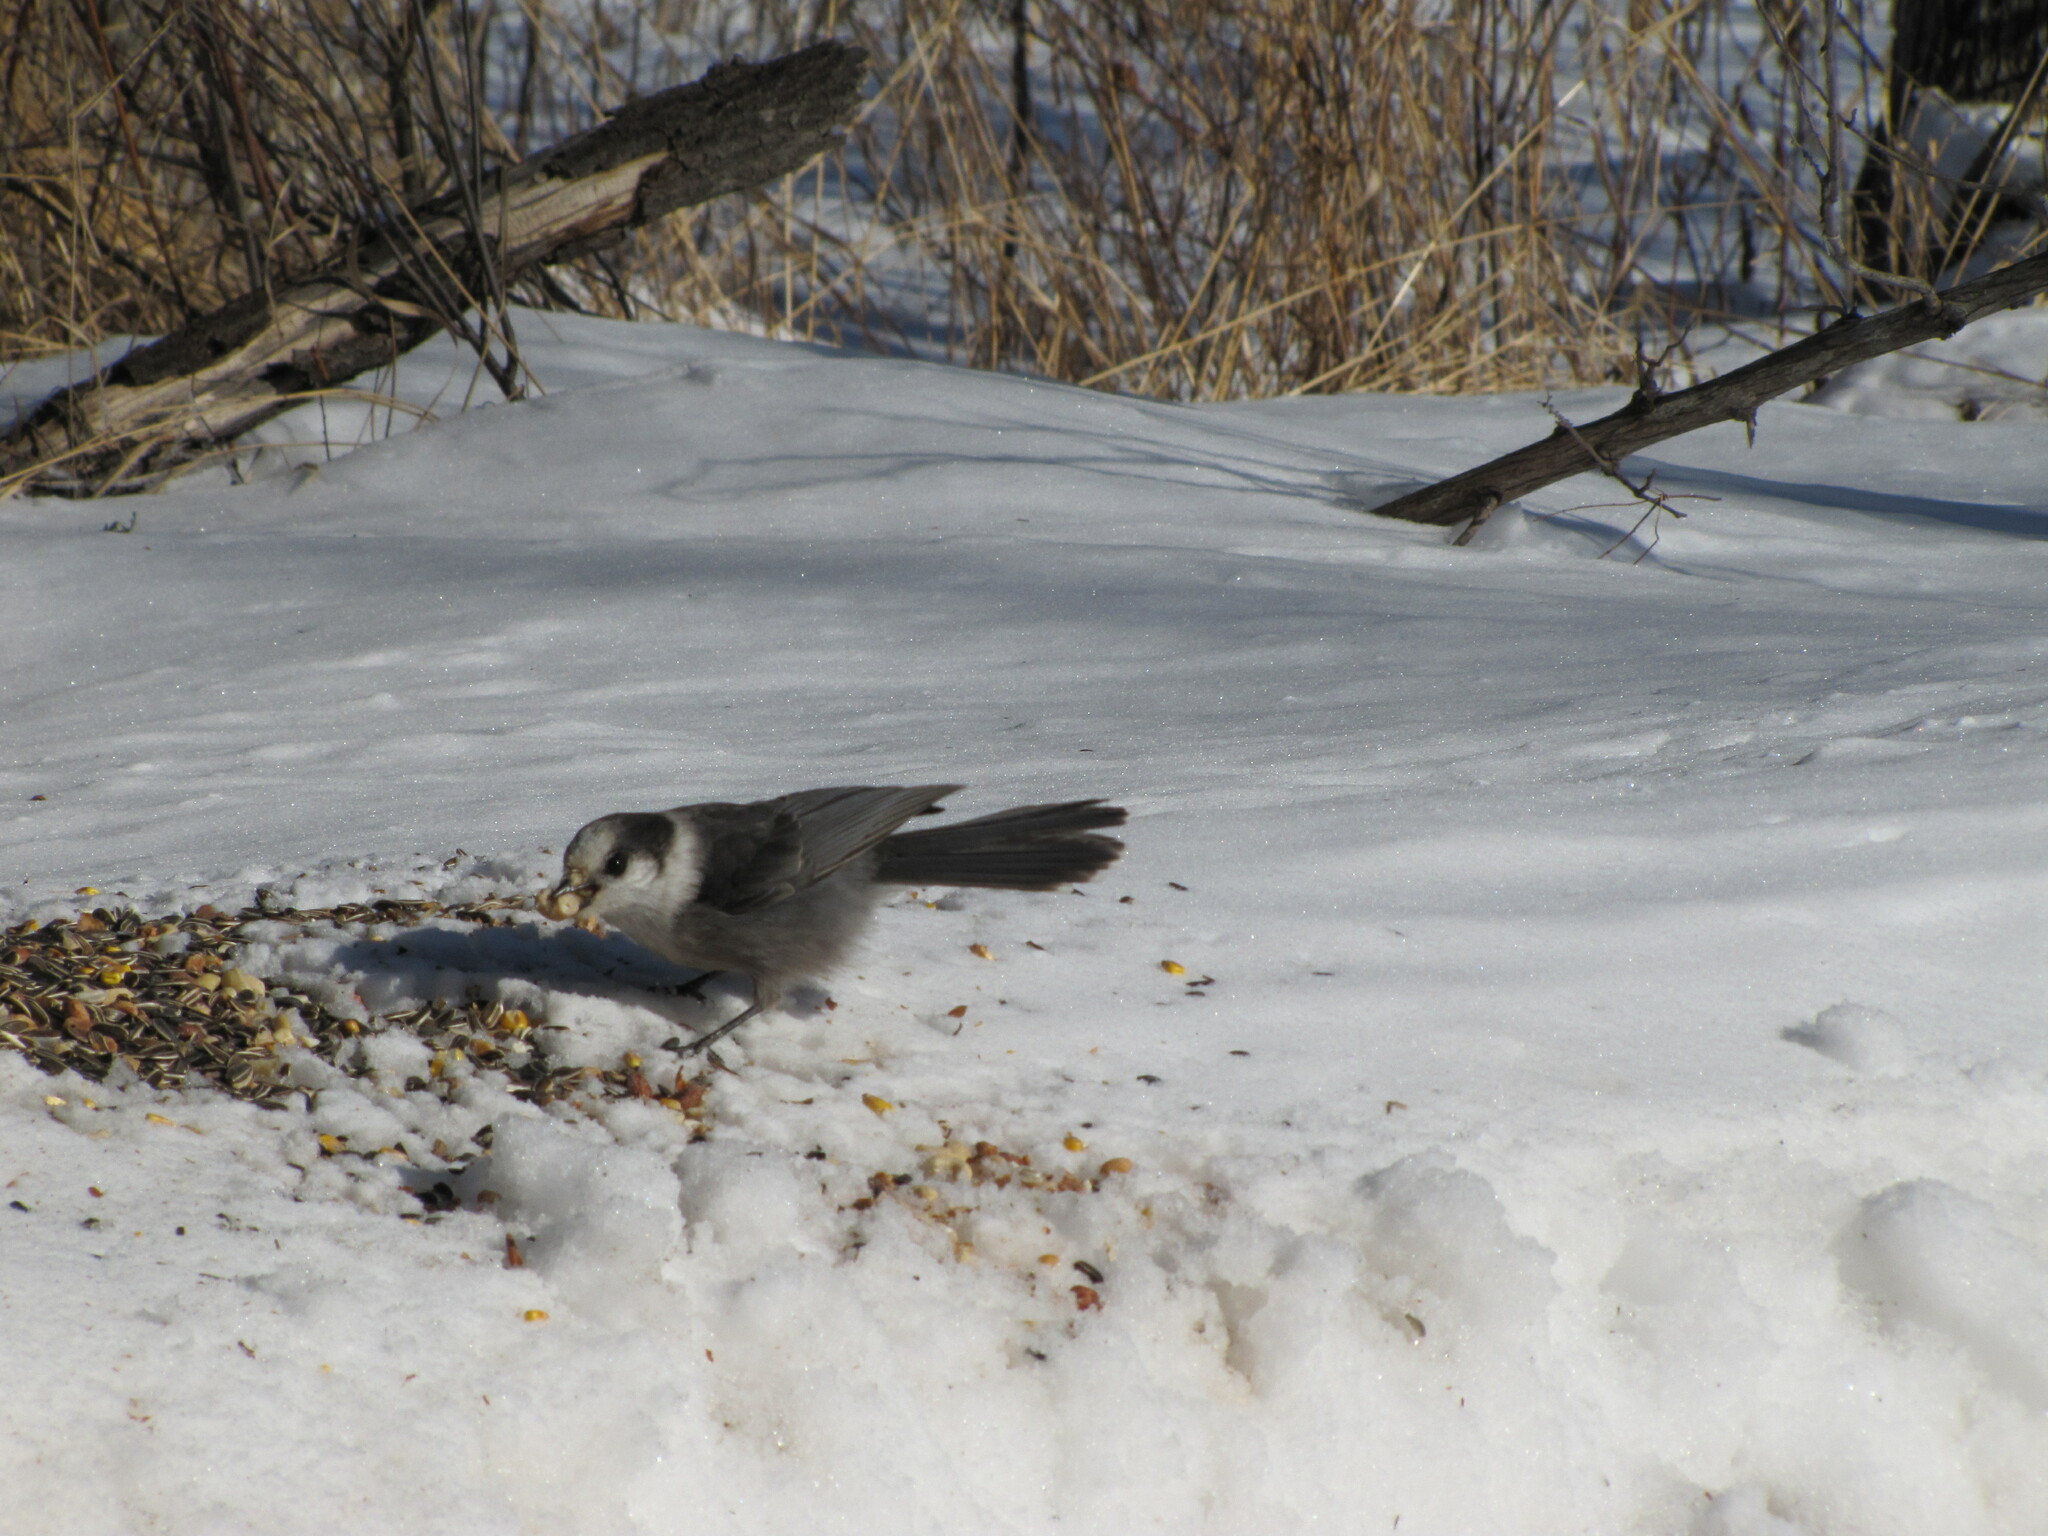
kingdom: Animalia
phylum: Chordata
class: Aves
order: Passeriformes
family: Corvidae
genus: Perisoreus
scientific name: Perisoreus canadensis
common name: Gray jay
